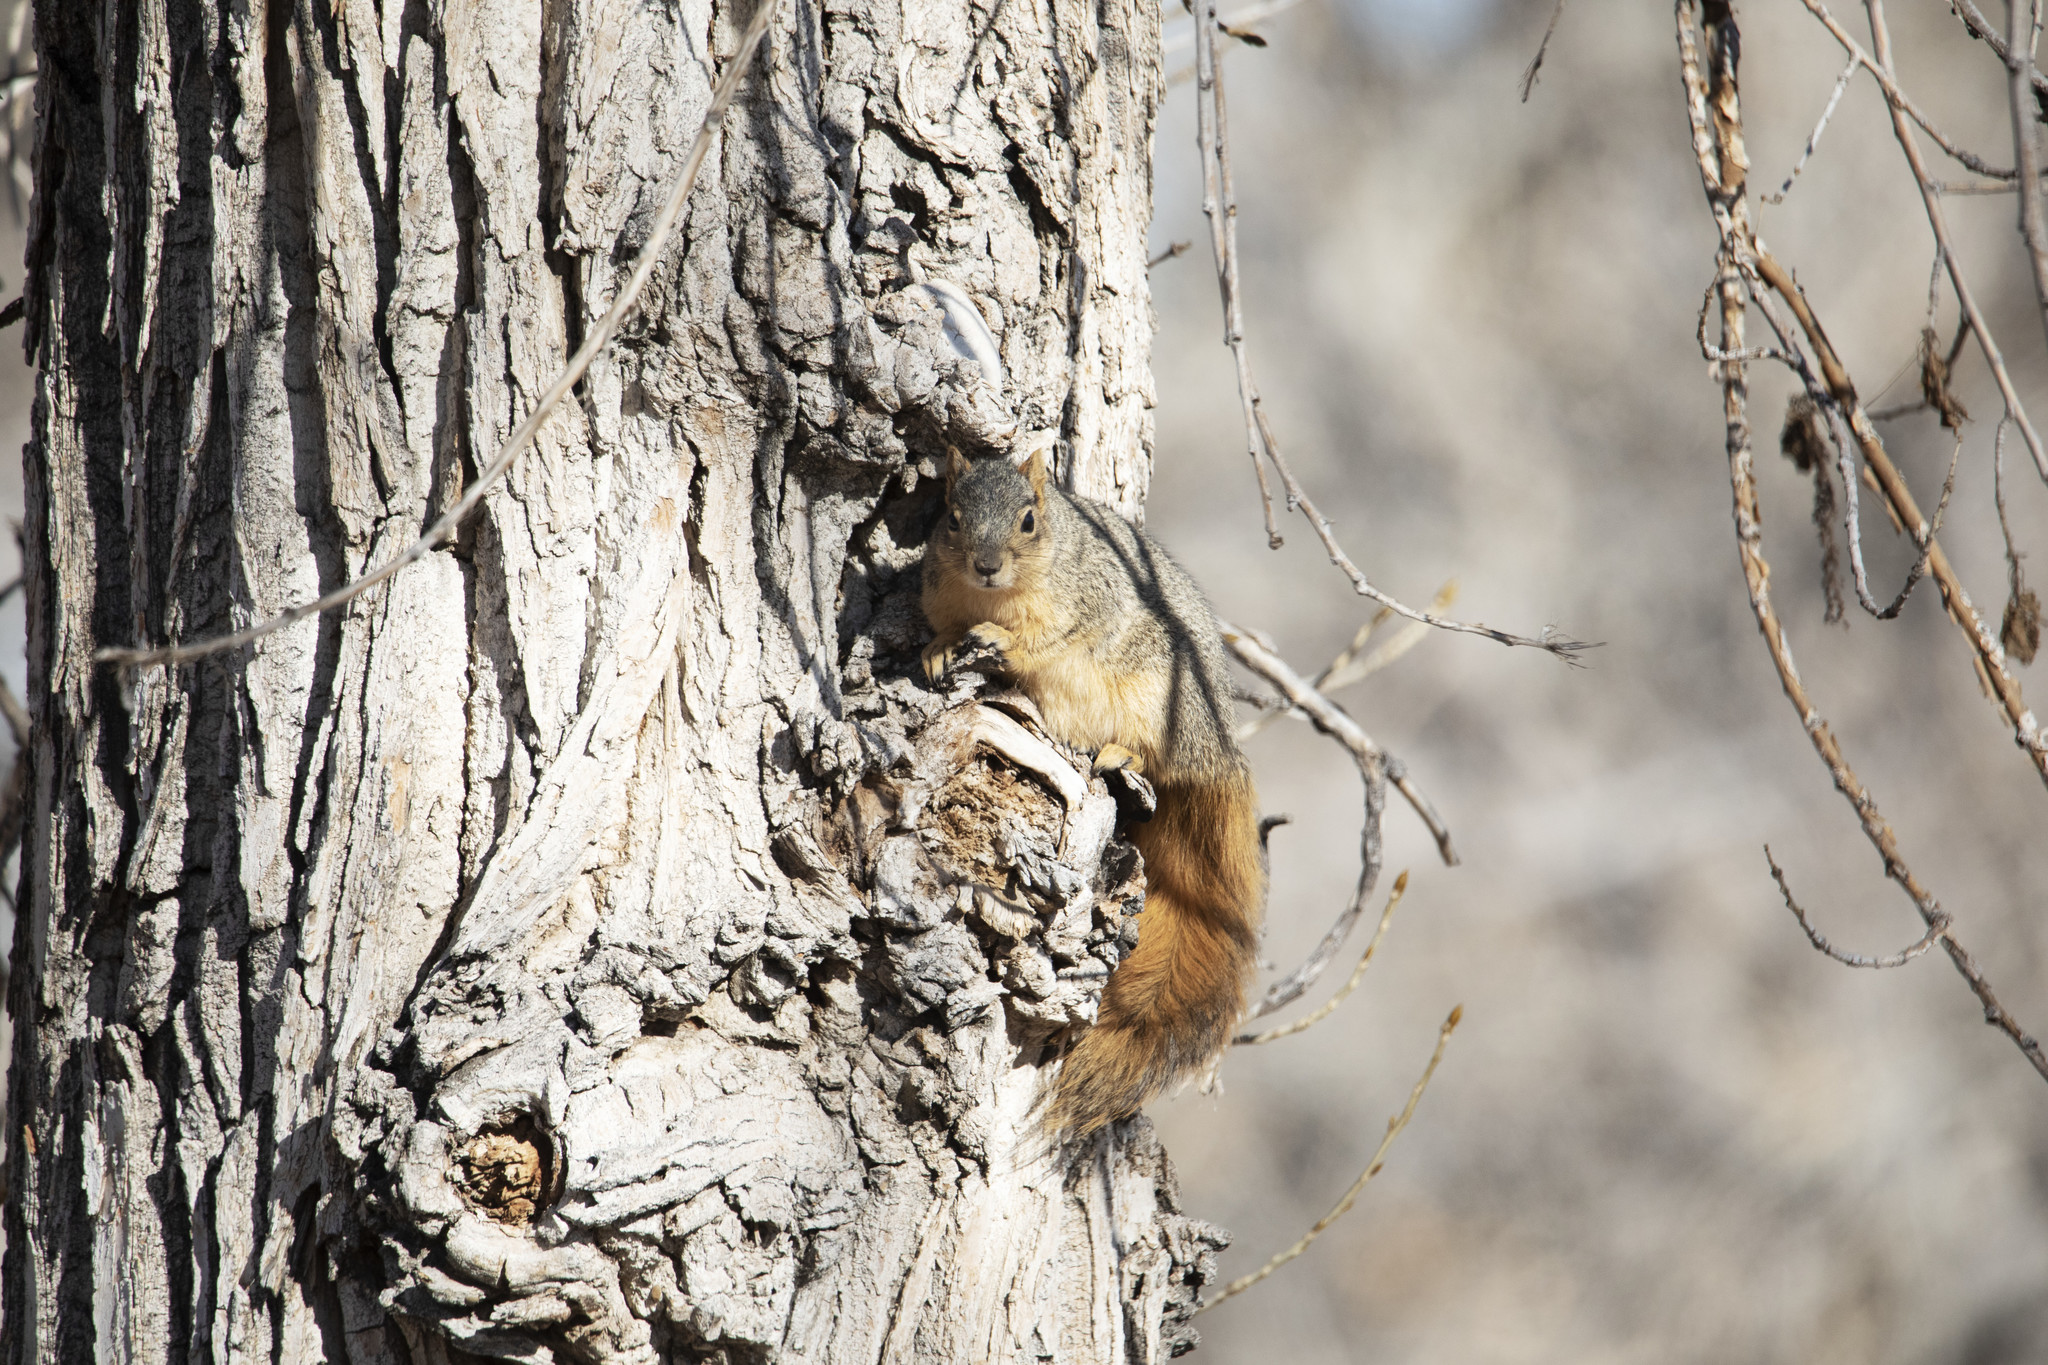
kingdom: Animalia
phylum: Chordata
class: Mammalia
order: Rodentia
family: Sciuridae
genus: Sciurus
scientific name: Sciurus niger
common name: Fox squirrel
